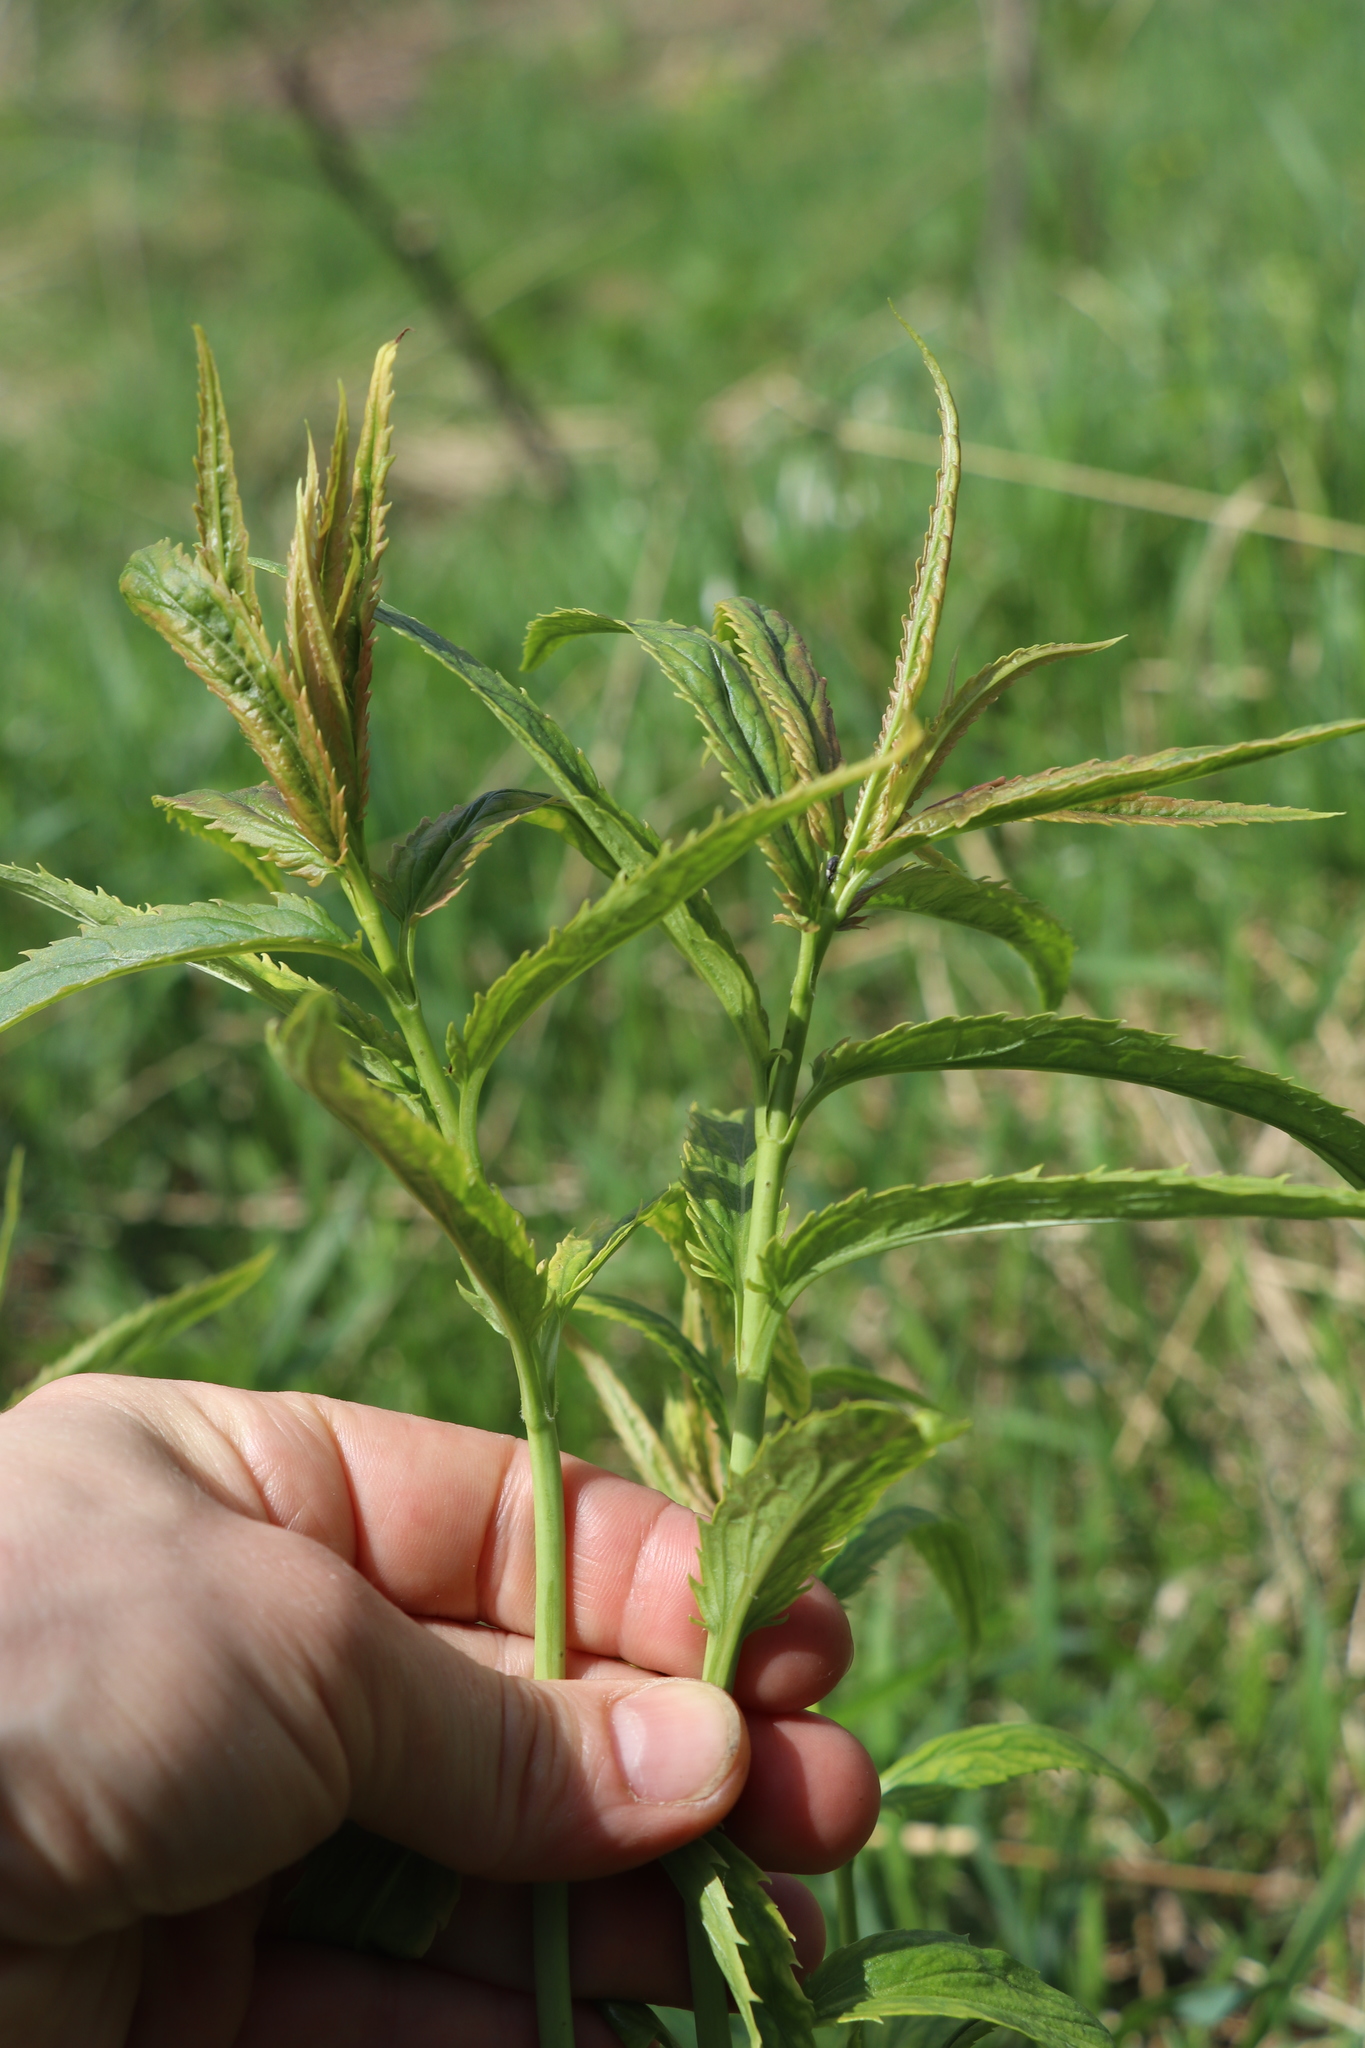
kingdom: Plantae
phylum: Tracheophyta
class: Magnoliopsida
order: Lamiales
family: Plantaginaceae
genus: Veronica
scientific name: Veronica longifolia
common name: Garden speedwell
